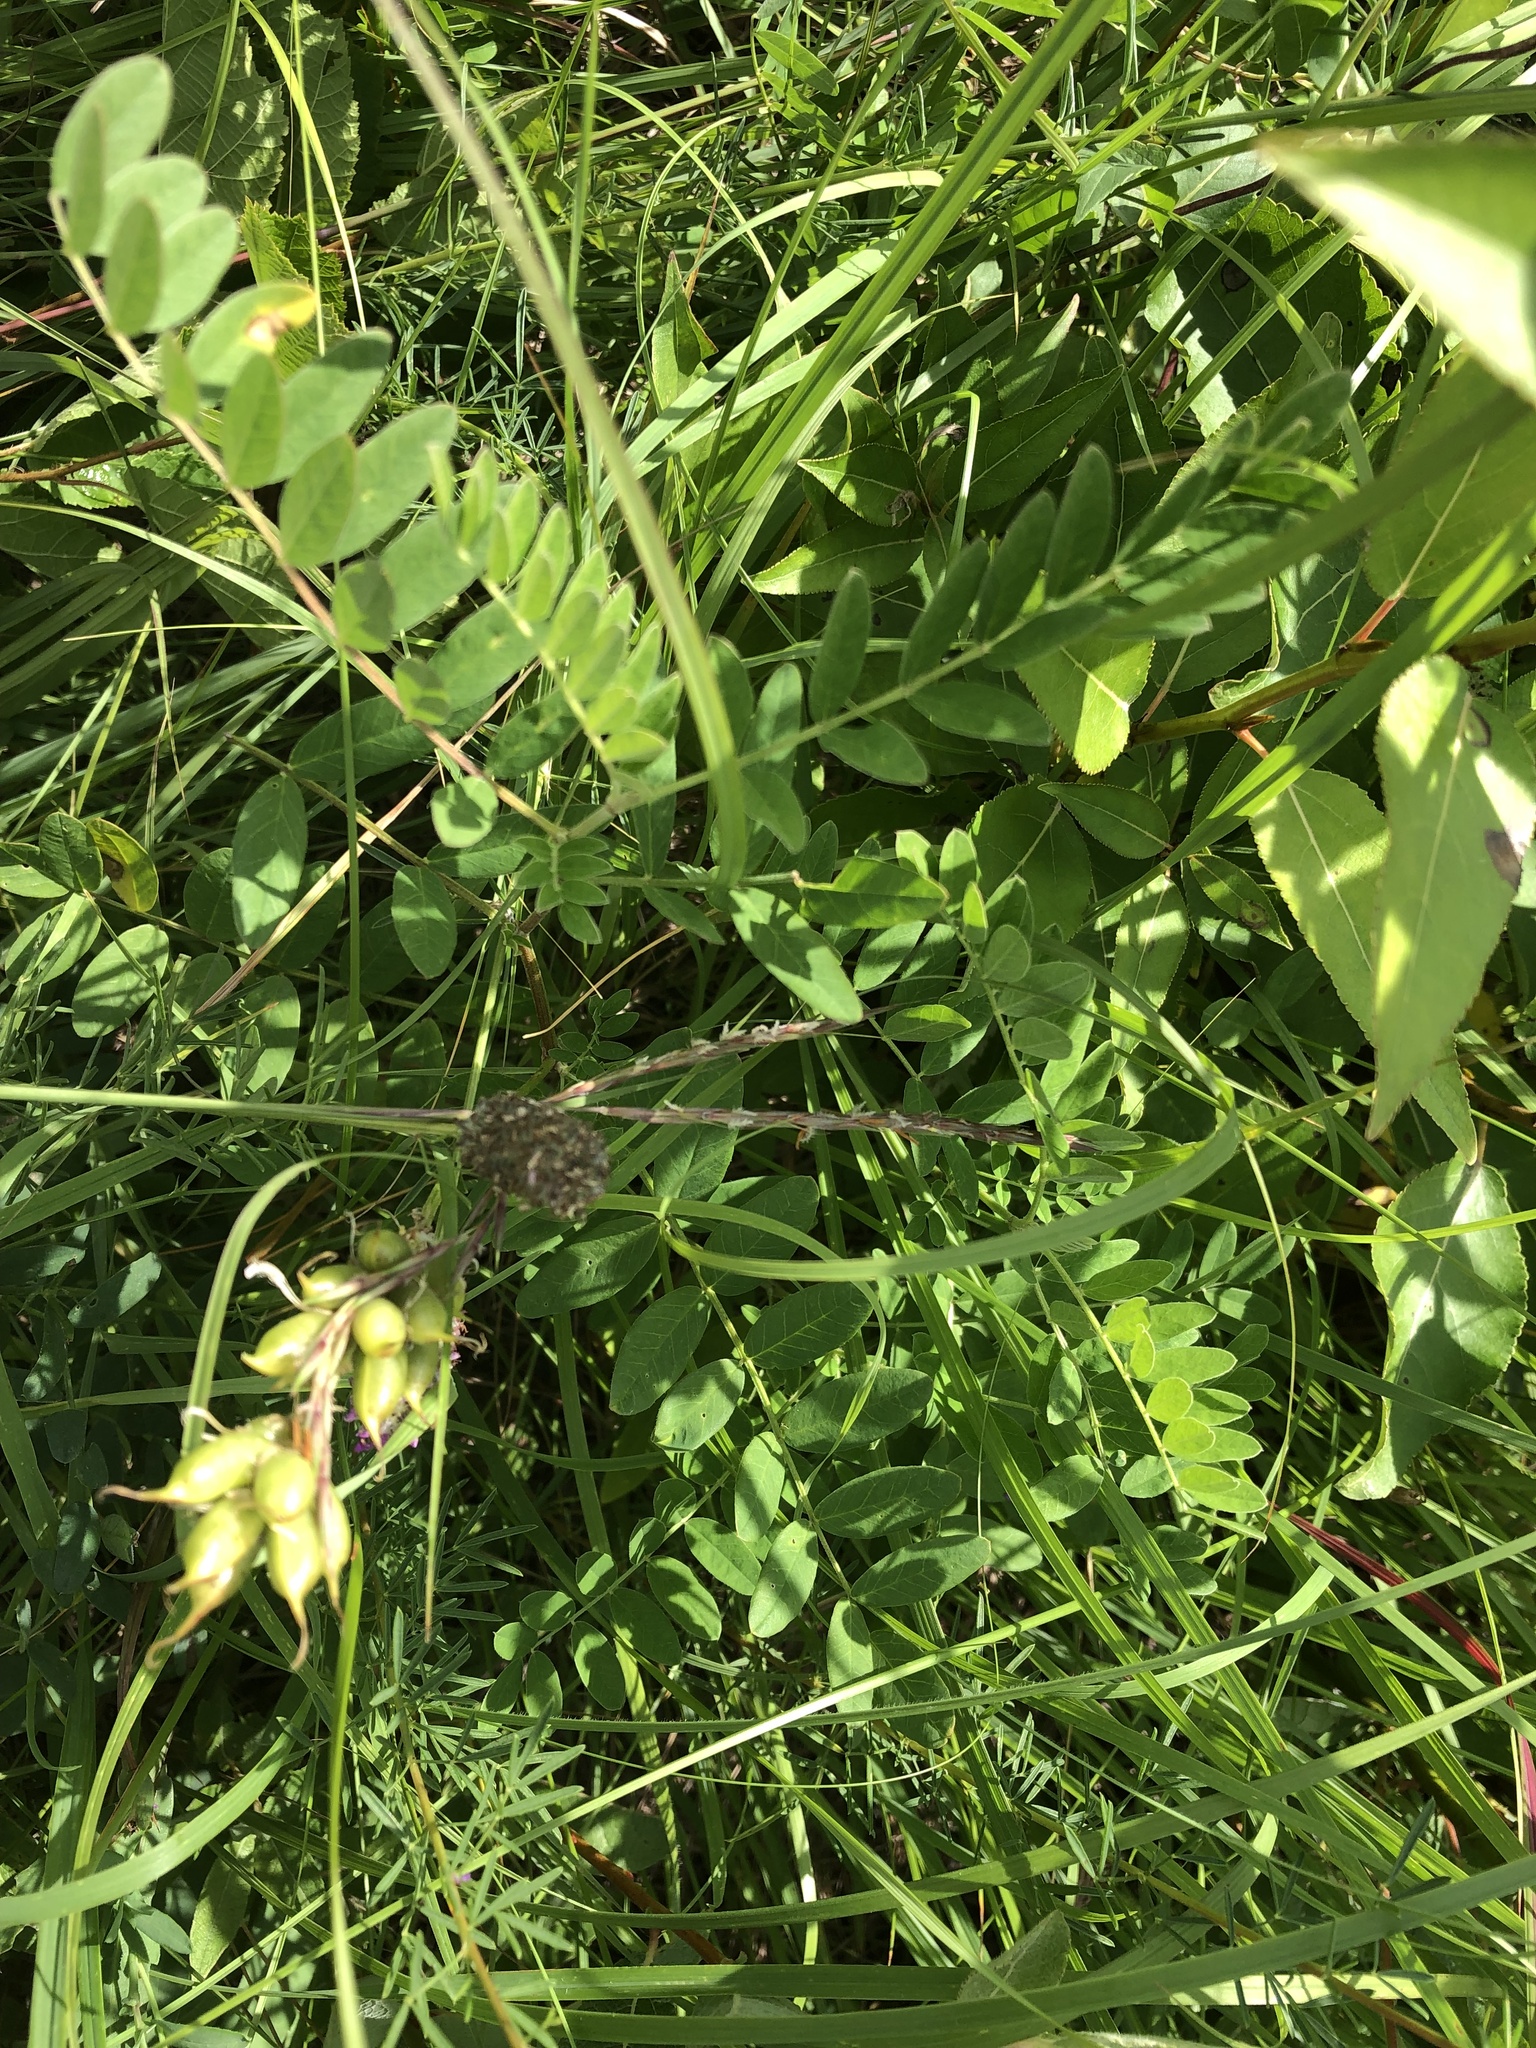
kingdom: Plantae
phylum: Tracheophyta
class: Magnoliopsida
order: Fabales
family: Fabaceae
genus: Astragalus
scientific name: Astragalus canadensis
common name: Canada milk-vetch
